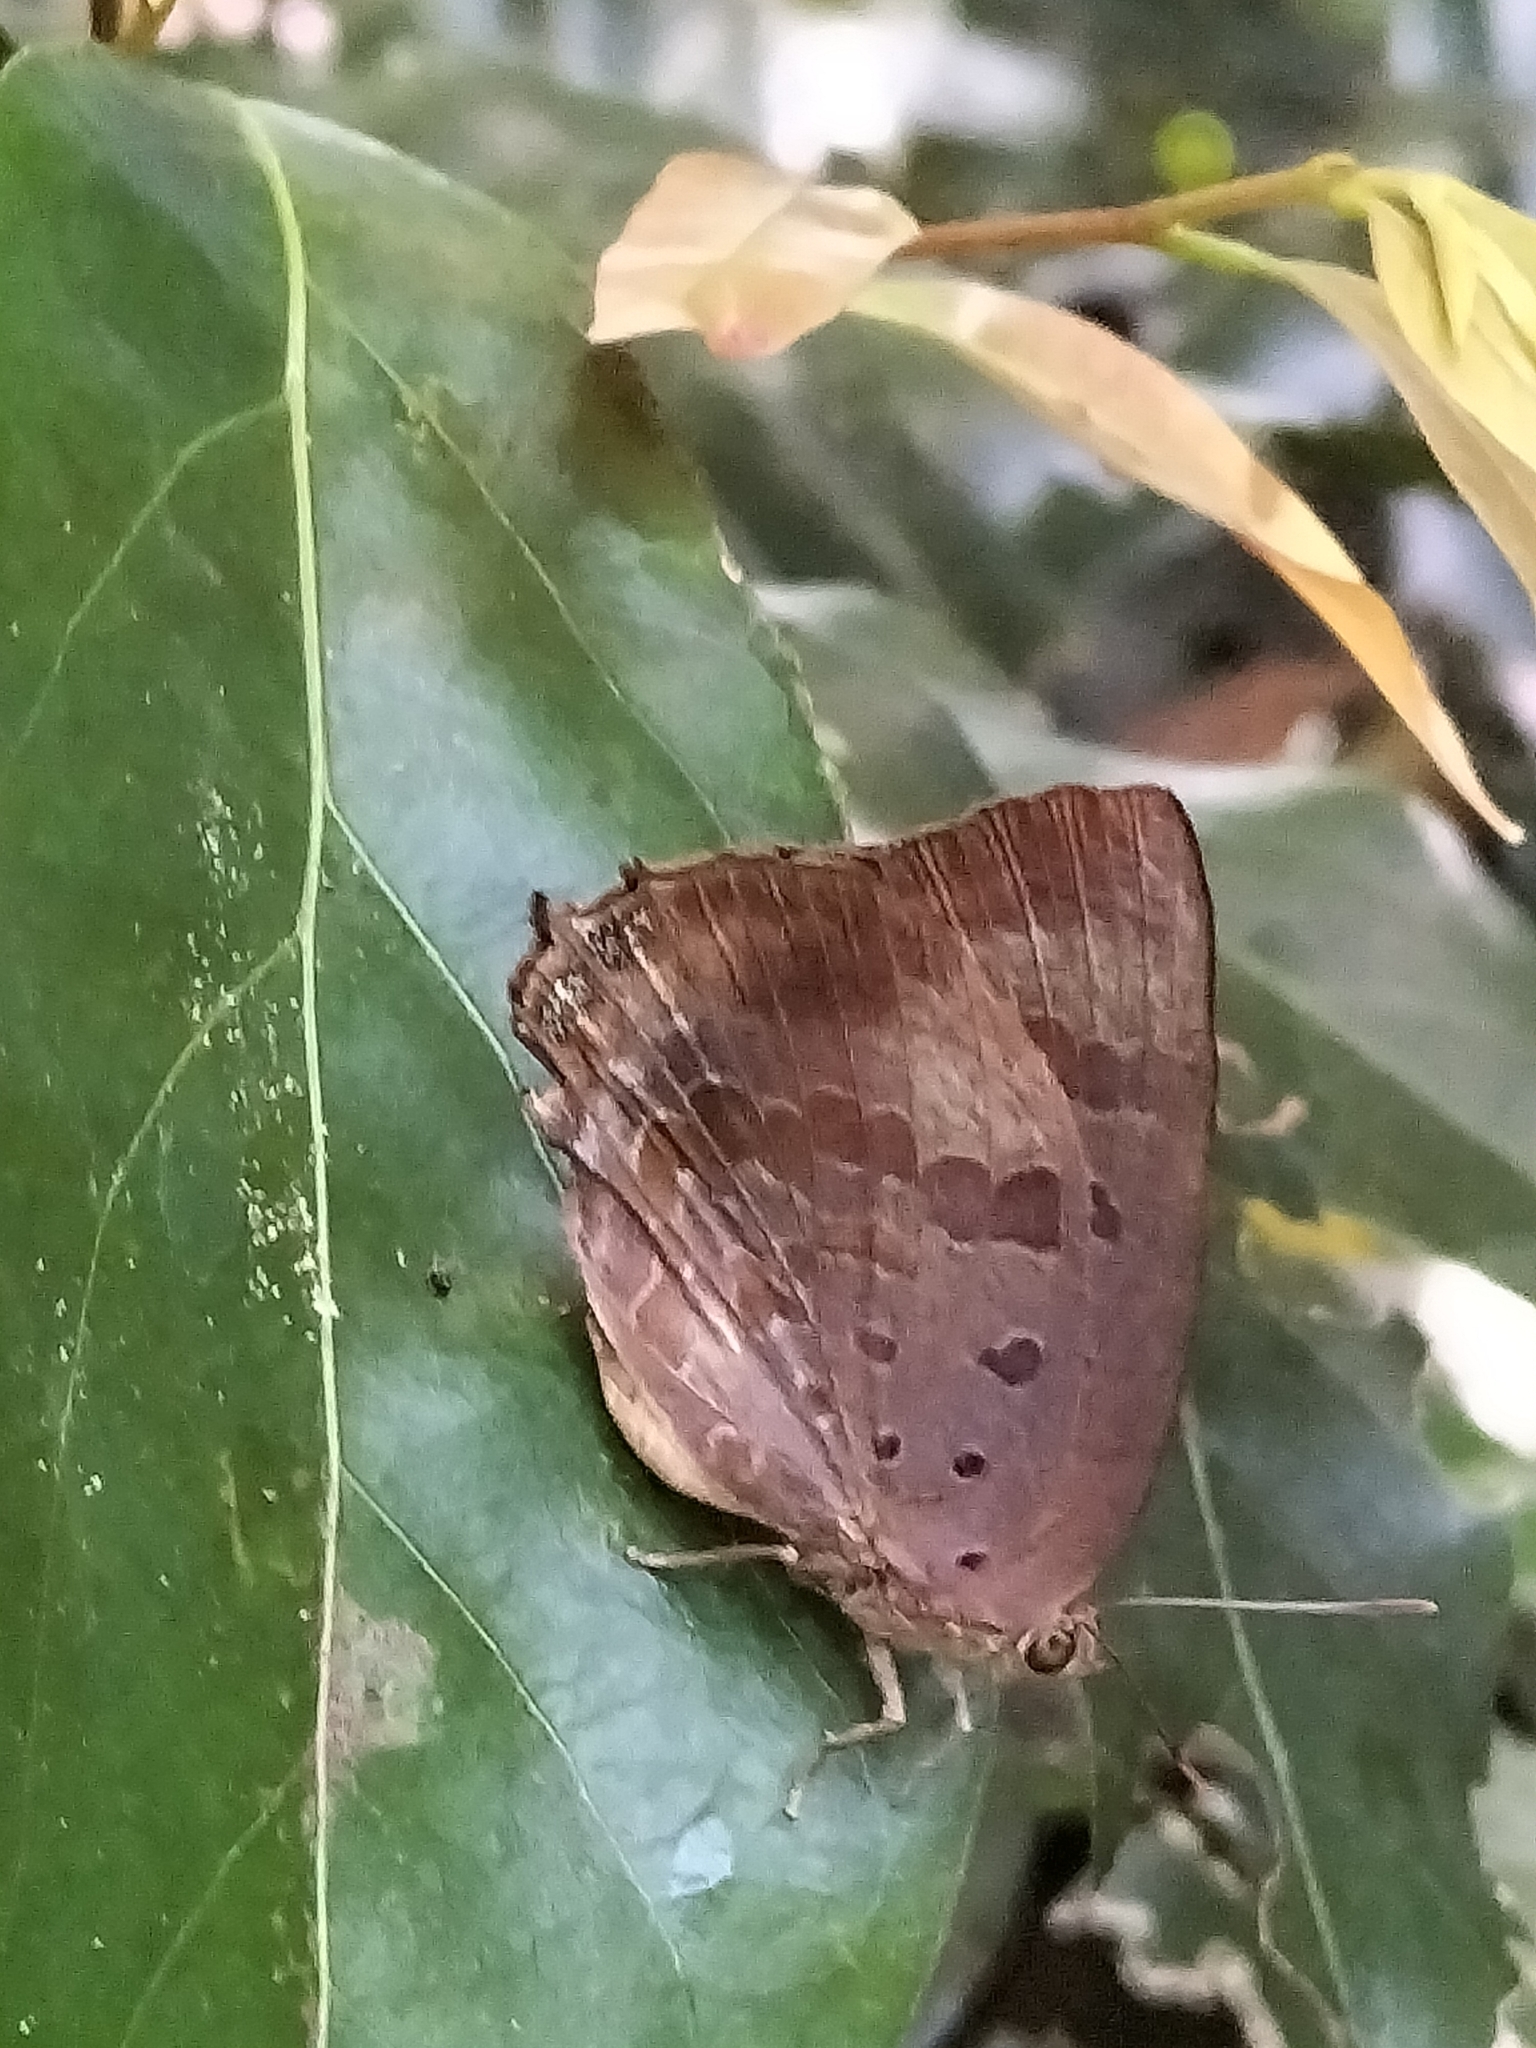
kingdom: Animalia
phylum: Arthropoda
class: Insecta
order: Lepidoptera
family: Lycaenidae
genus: Arhopala
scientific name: Arhopala madytus
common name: Bright oak-blue
